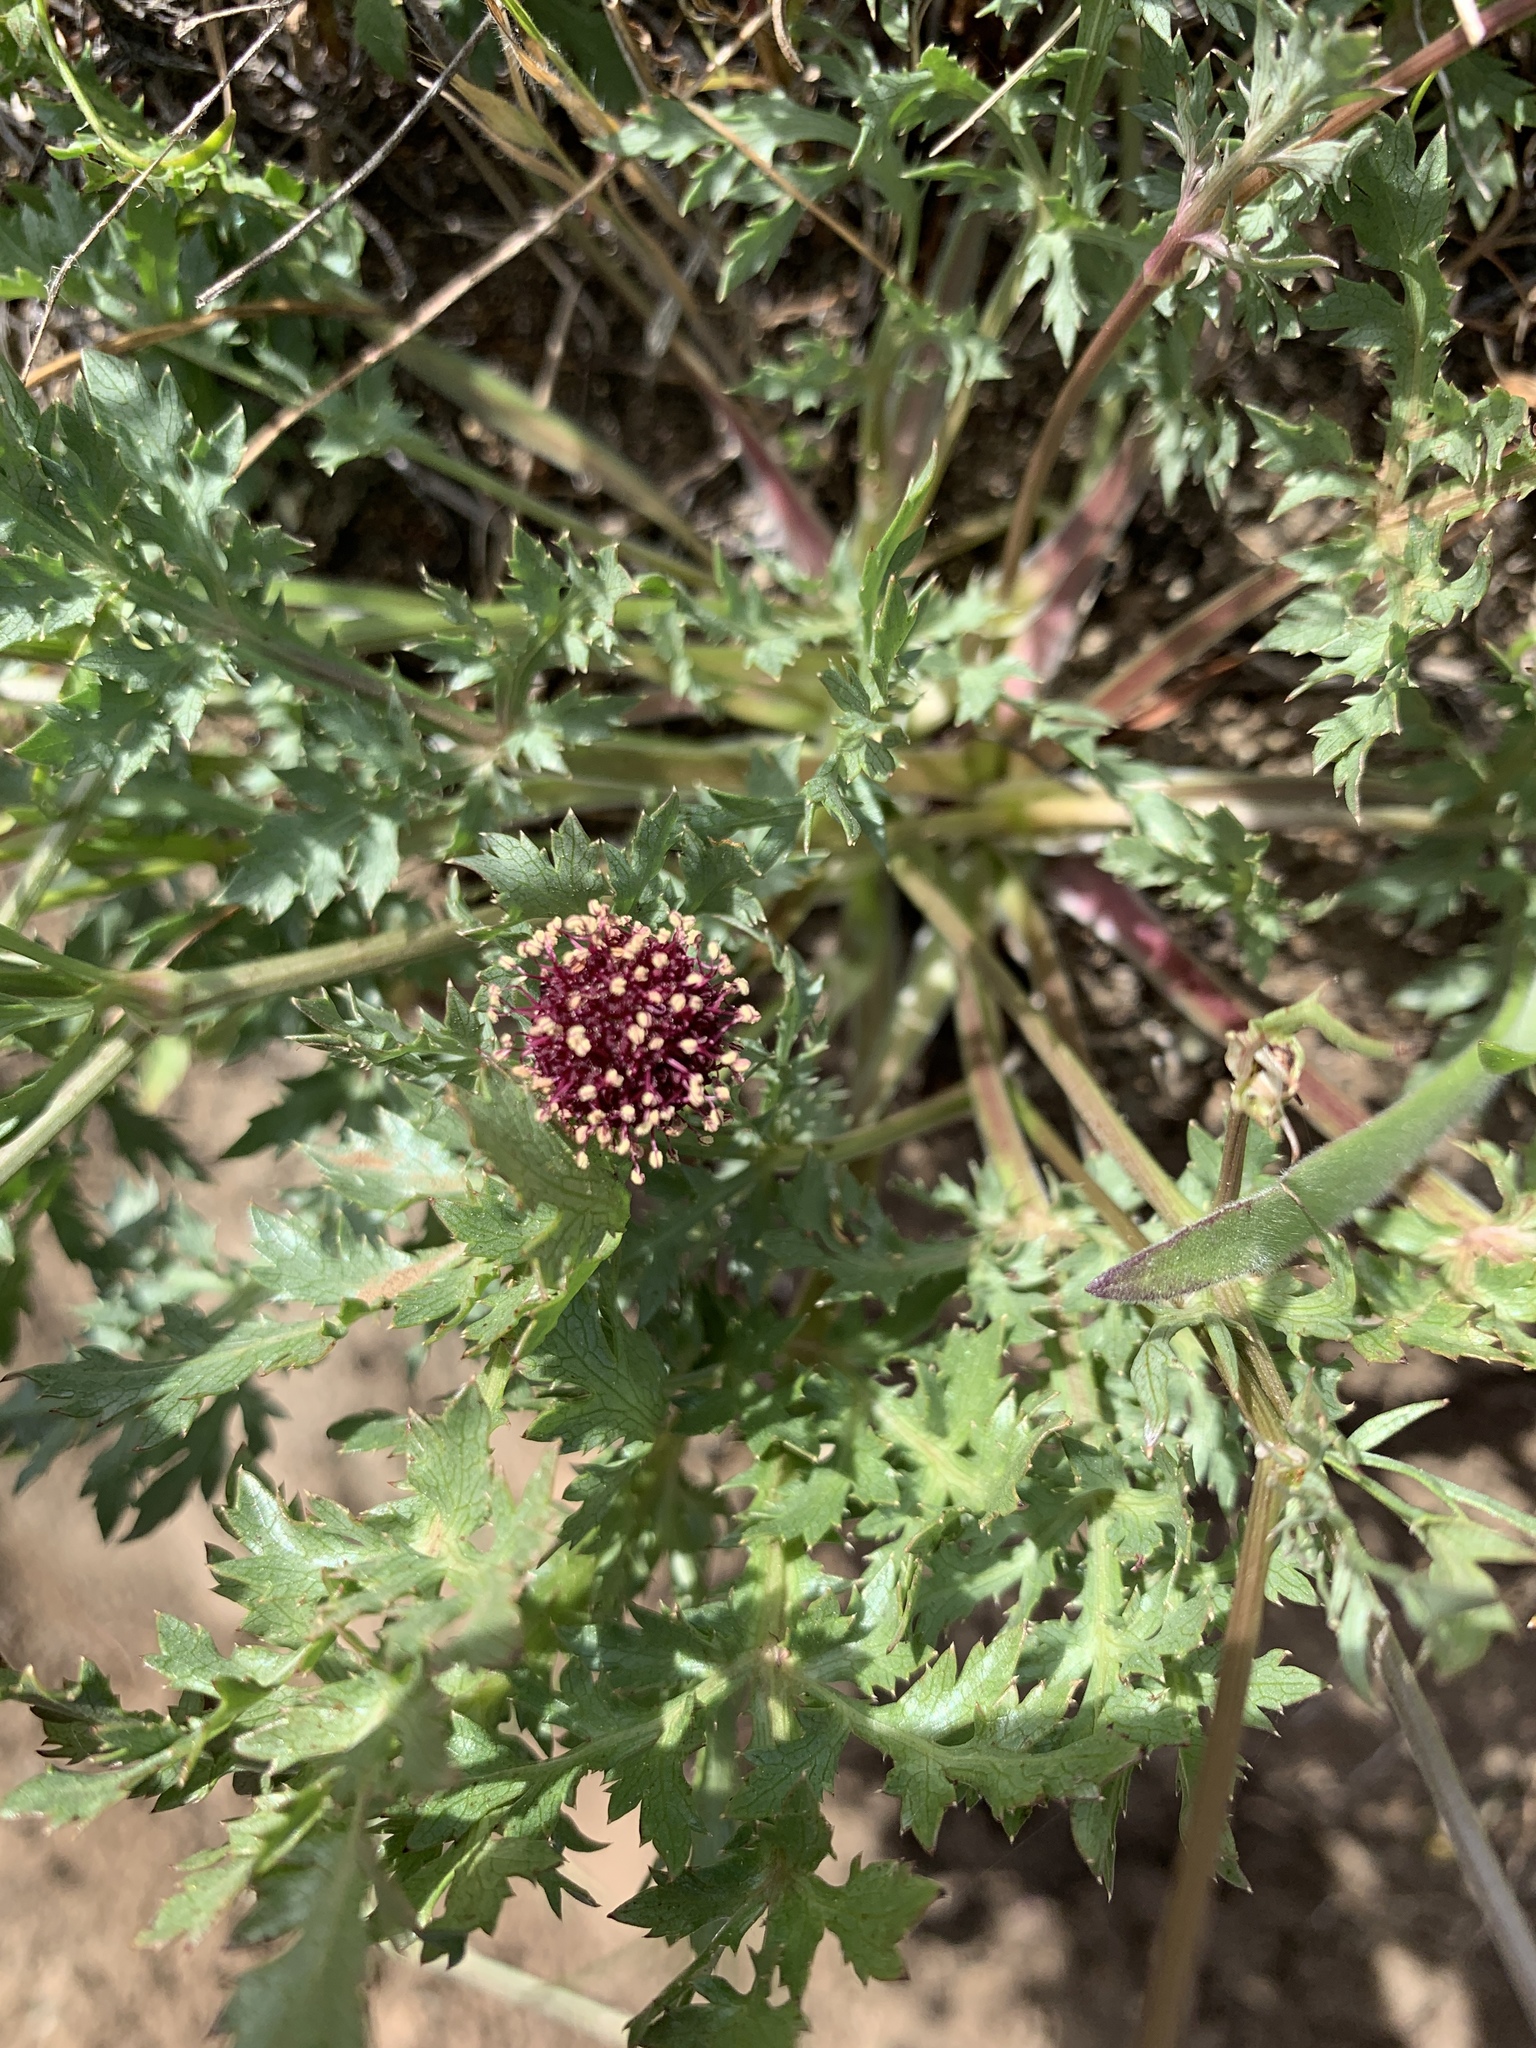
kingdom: Plantae
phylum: Tracheophyta
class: Magnoliopsida
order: Apiales
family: Apiaceae
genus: Sanicula
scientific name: Sanicula bipinnatifida
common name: Shoe-buttons
